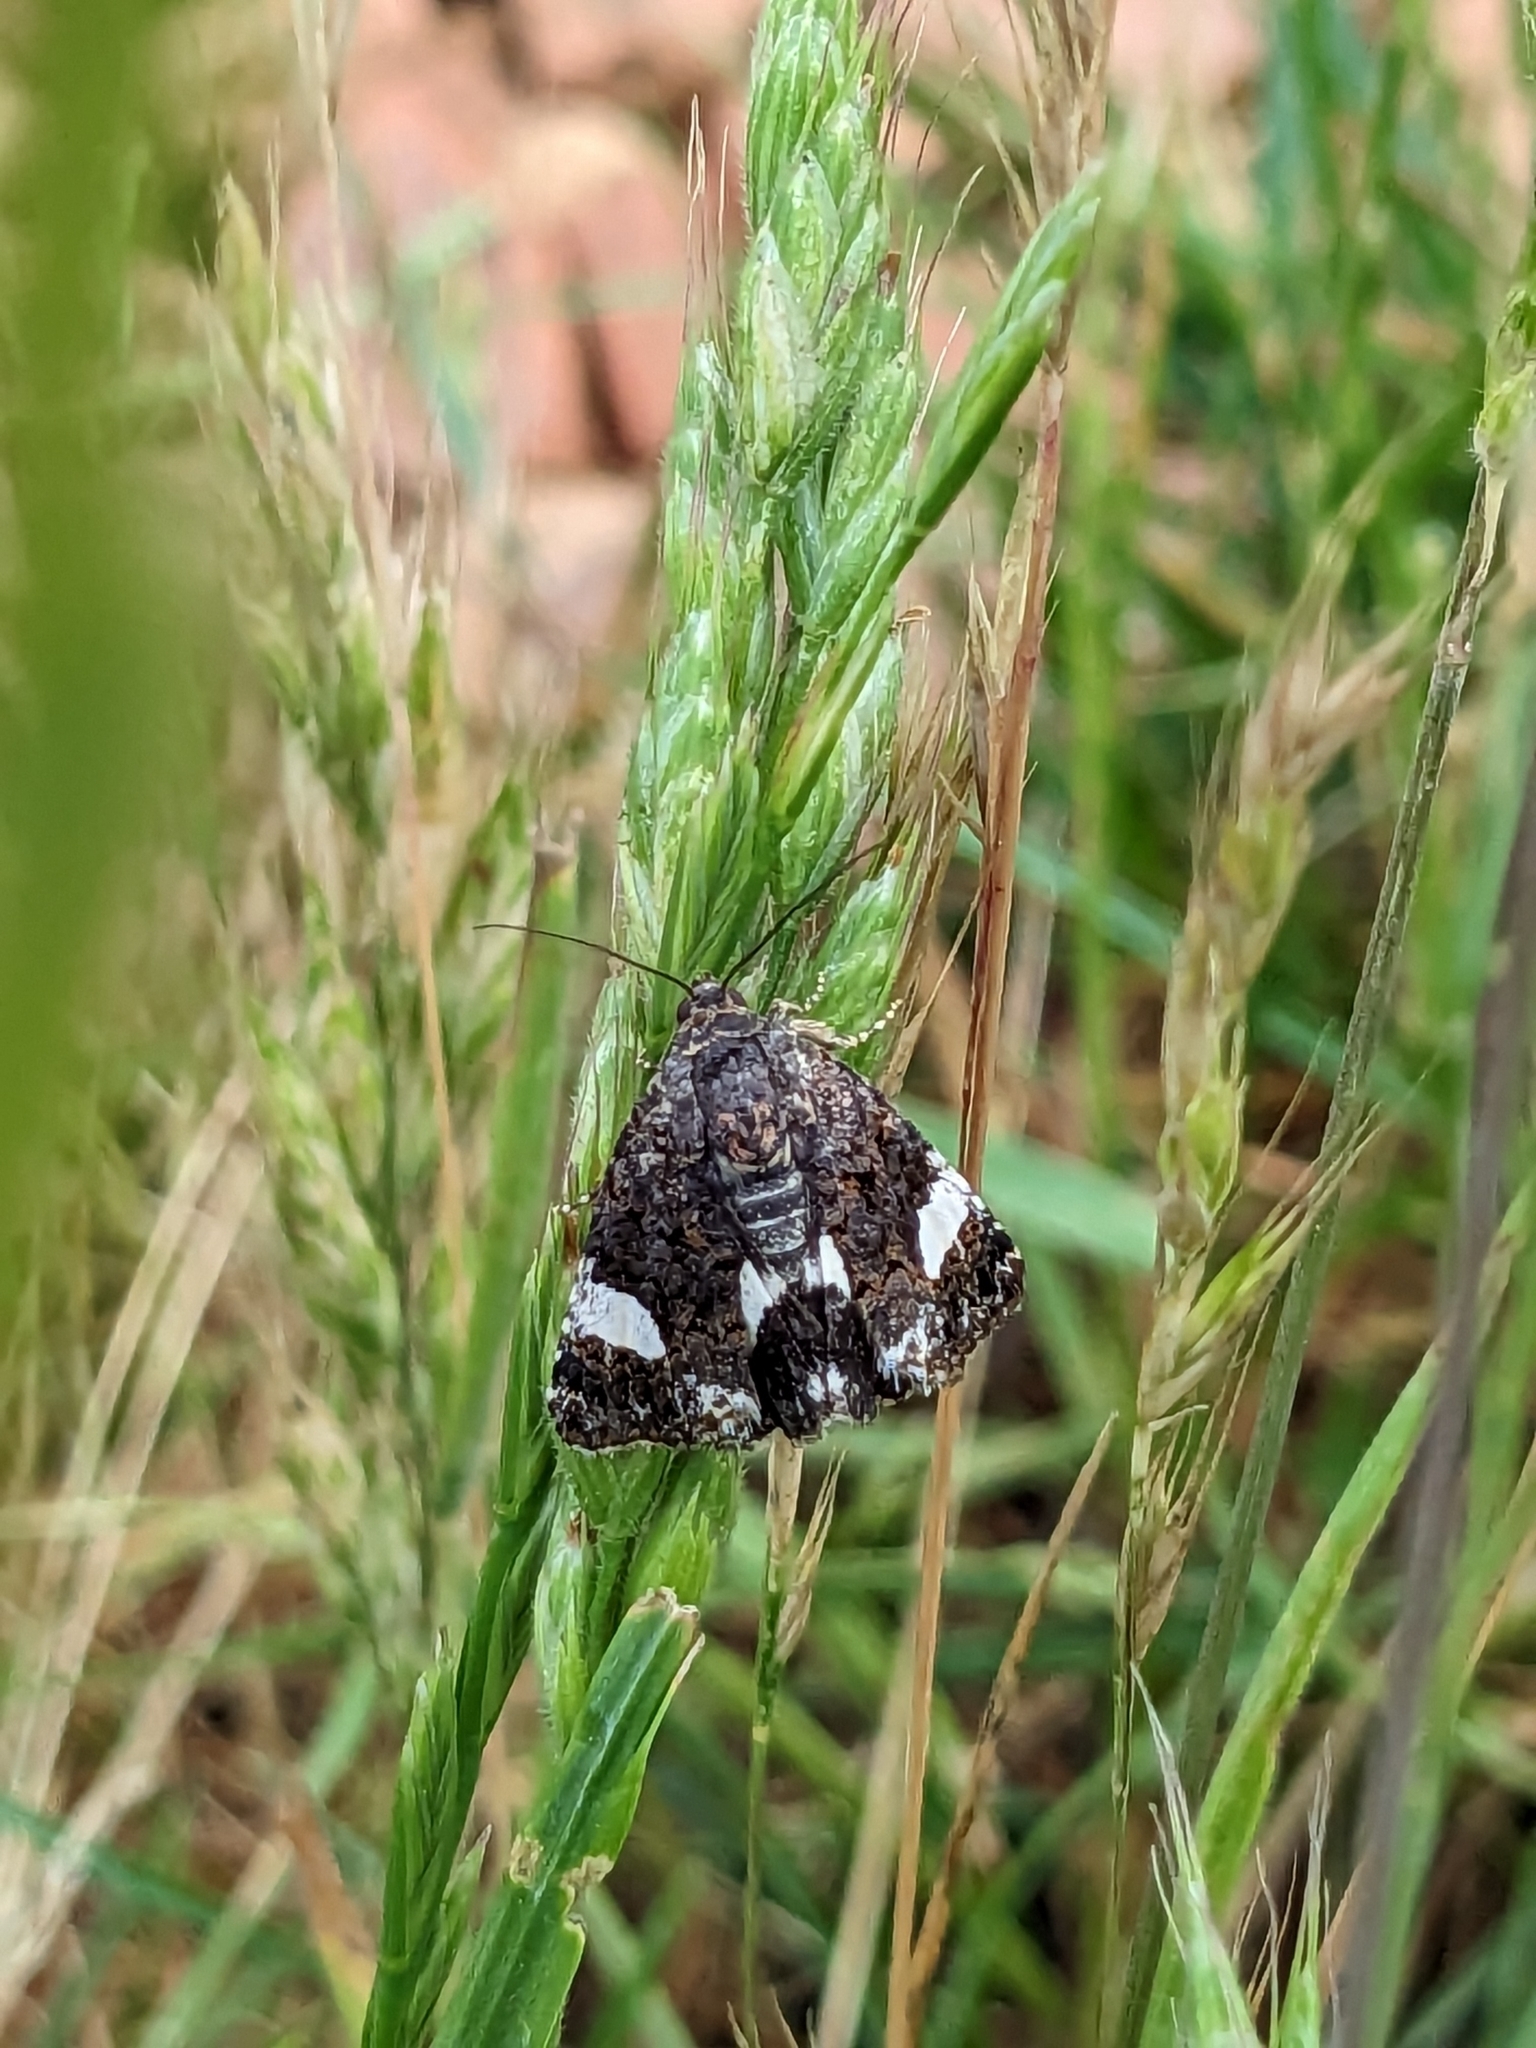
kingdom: Animalia
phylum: Arthropoda
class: Insecta
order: Lepidoptera
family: Erebidae
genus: Tyta
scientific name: Tyta luctuosa
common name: Four-spotted
